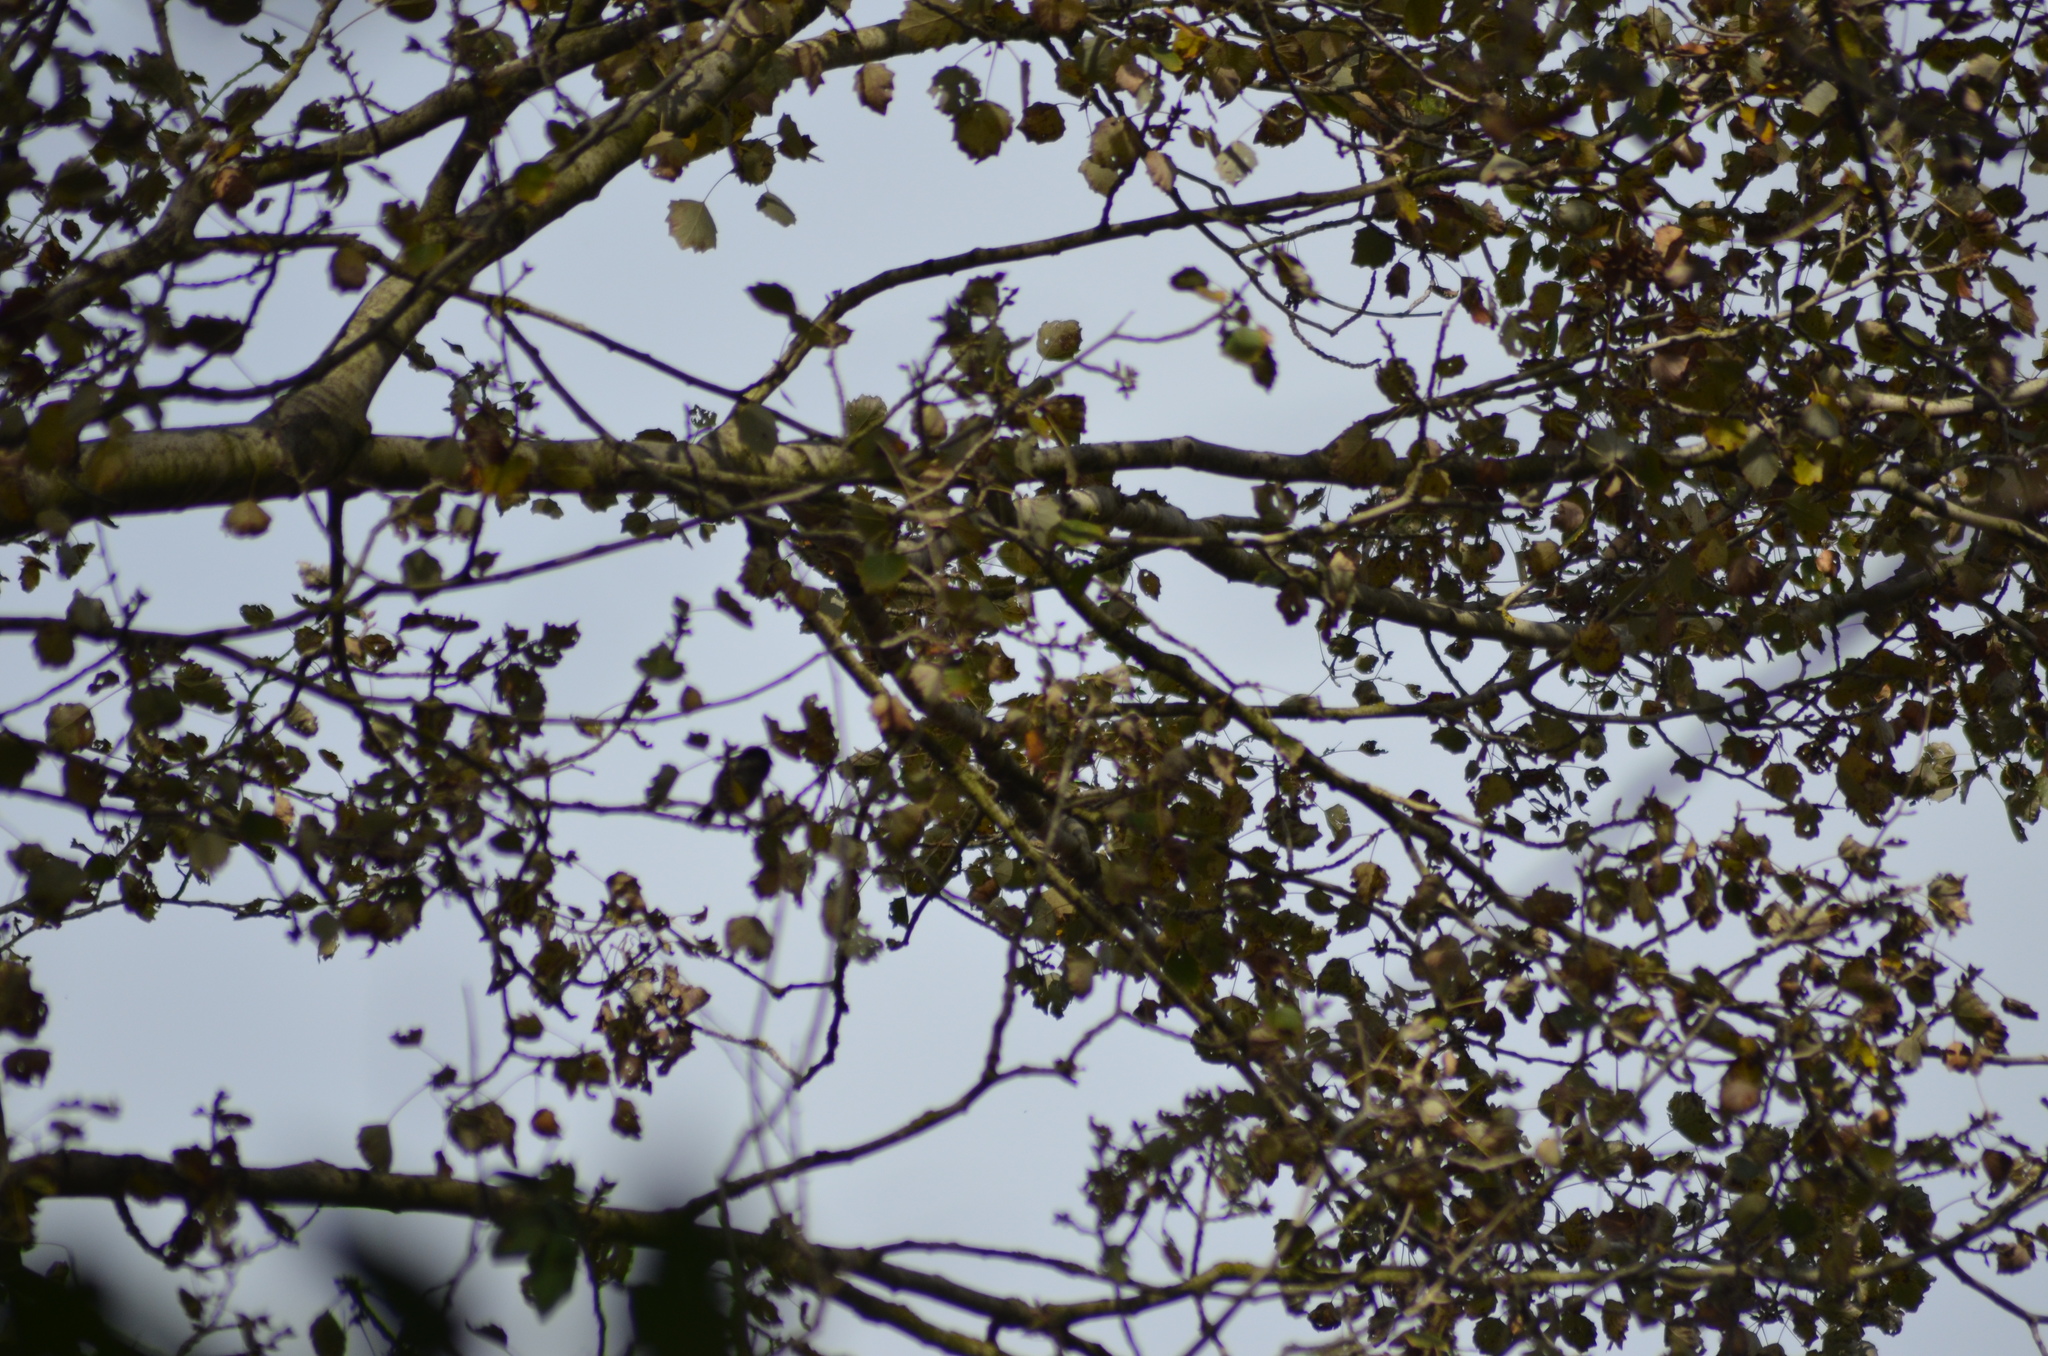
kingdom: Animalia
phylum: Chordata
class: Aves
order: Passeriformes
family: Aegithalidae
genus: Aegithalos
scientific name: Aegithalos caudatus
